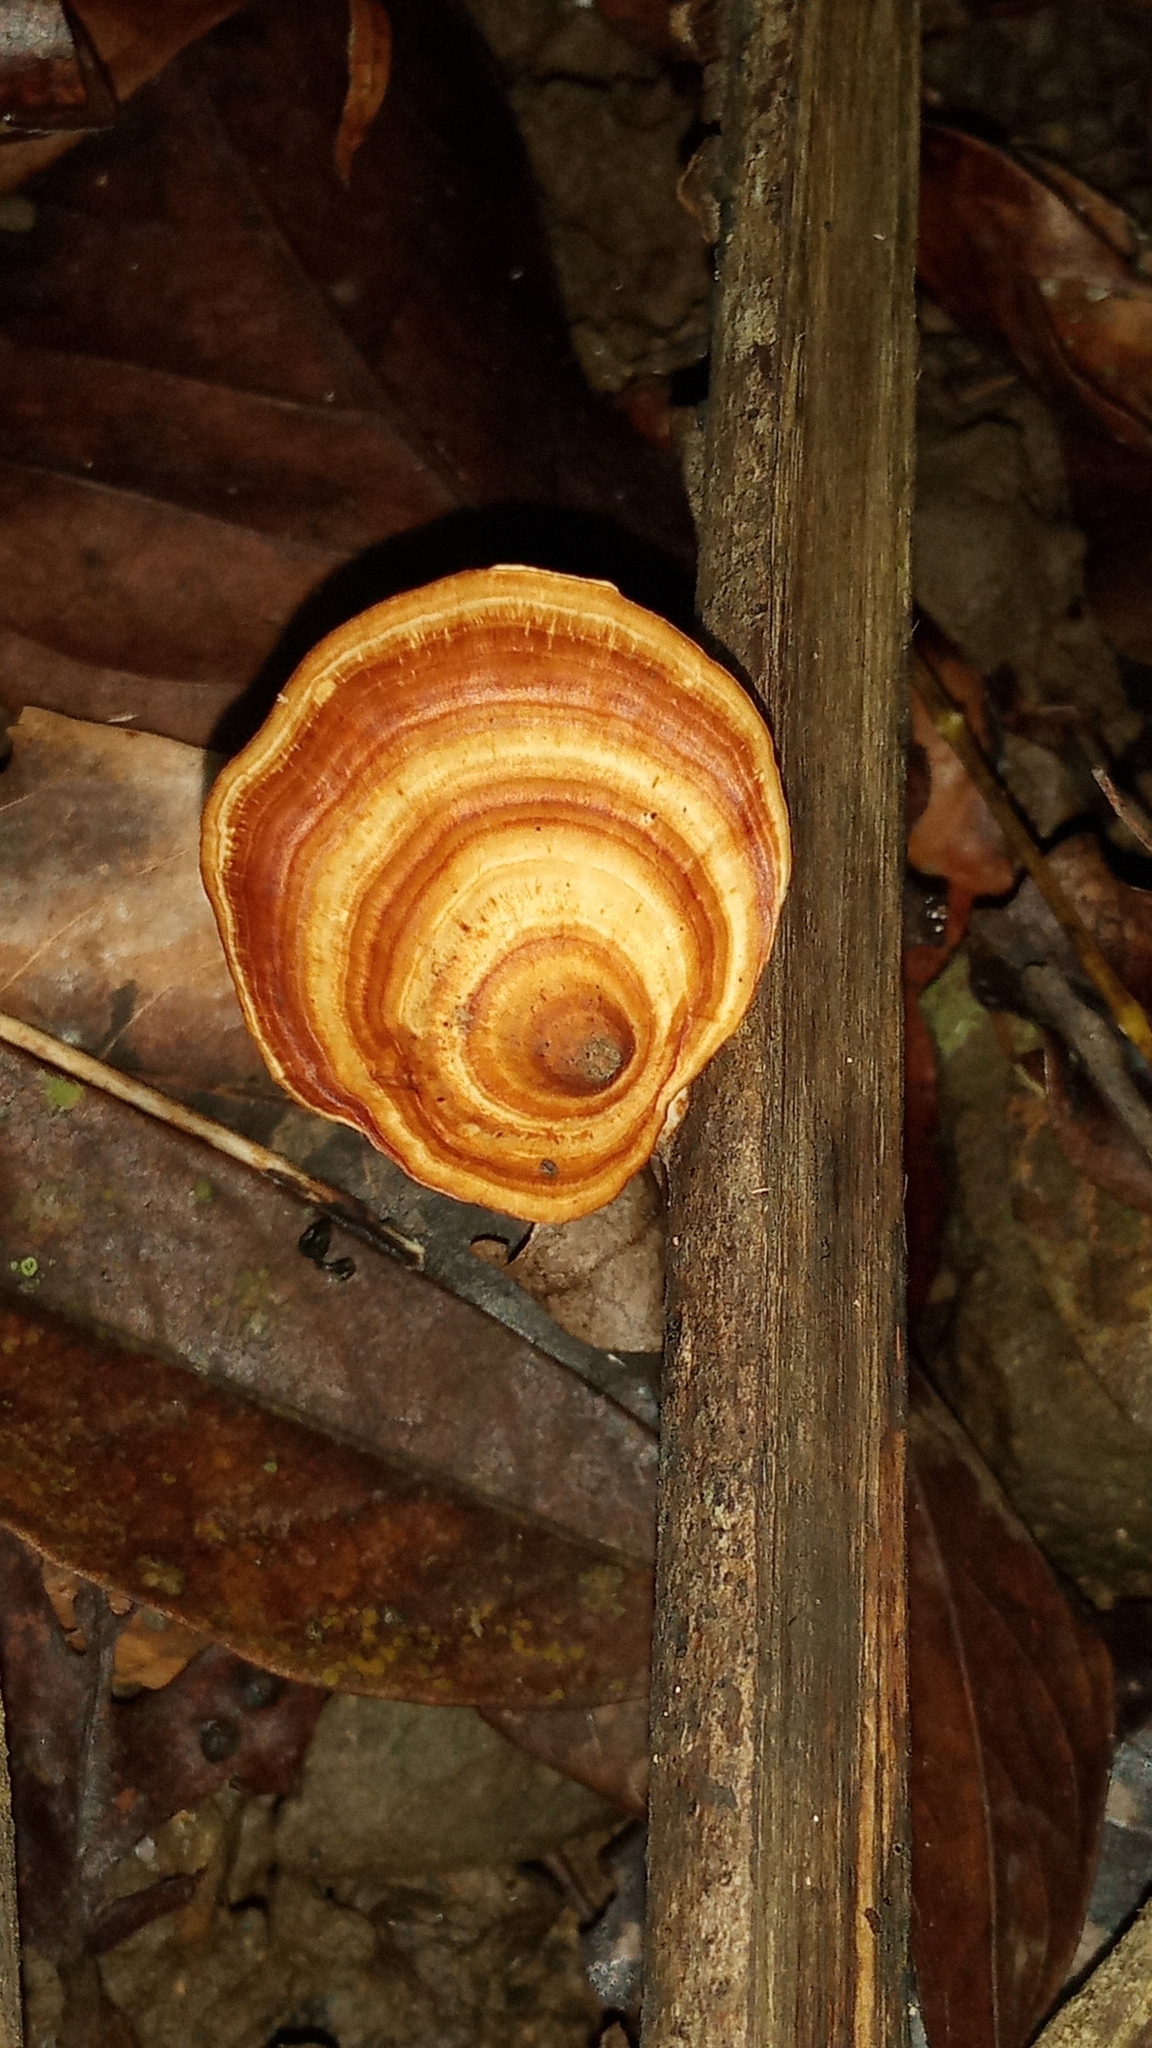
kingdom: Fungi
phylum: Basidiomycota
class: Agaricomycetes
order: Polyporales
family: Polyporaceae
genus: Microporus
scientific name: Microporus xanthopus
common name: Yellow-stemmed micropore
